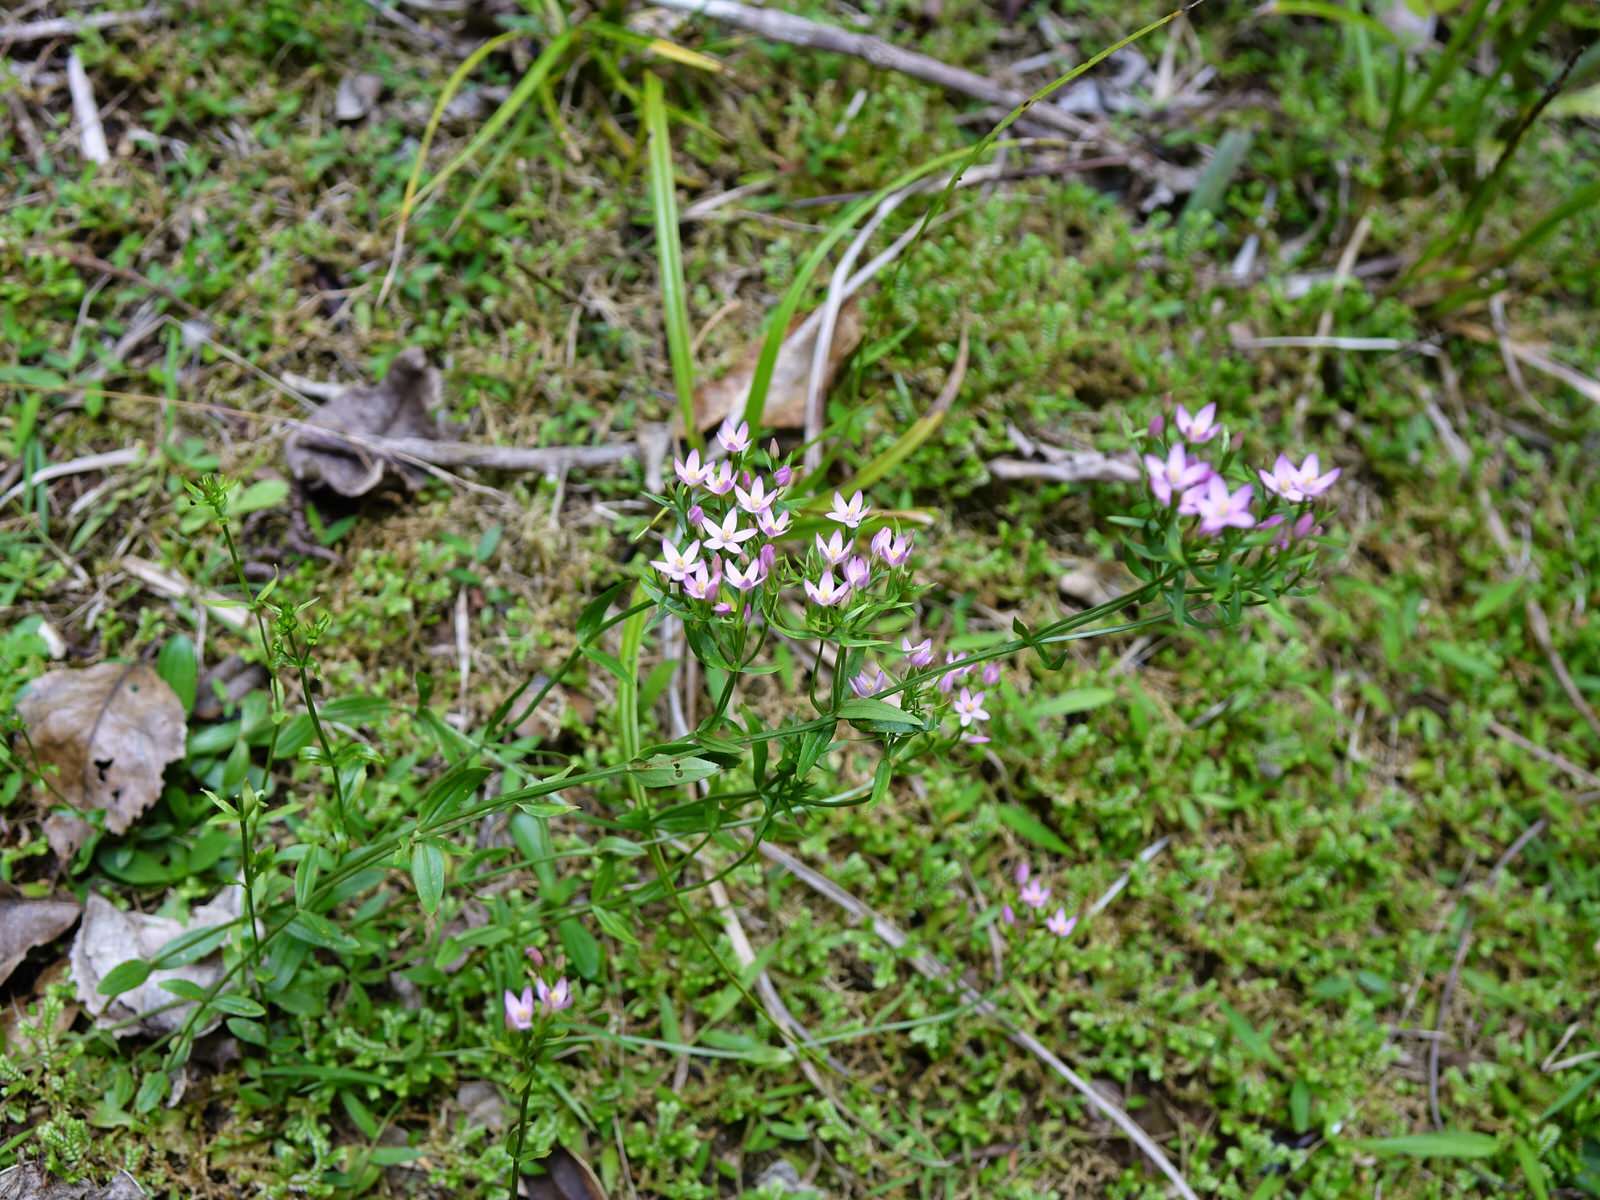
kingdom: Plantae
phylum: Tracheophyta
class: Magnoliopsida
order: Gentianales
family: Gentianaceae
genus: Centaurium
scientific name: Centaurium erythraea
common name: Common centaury
